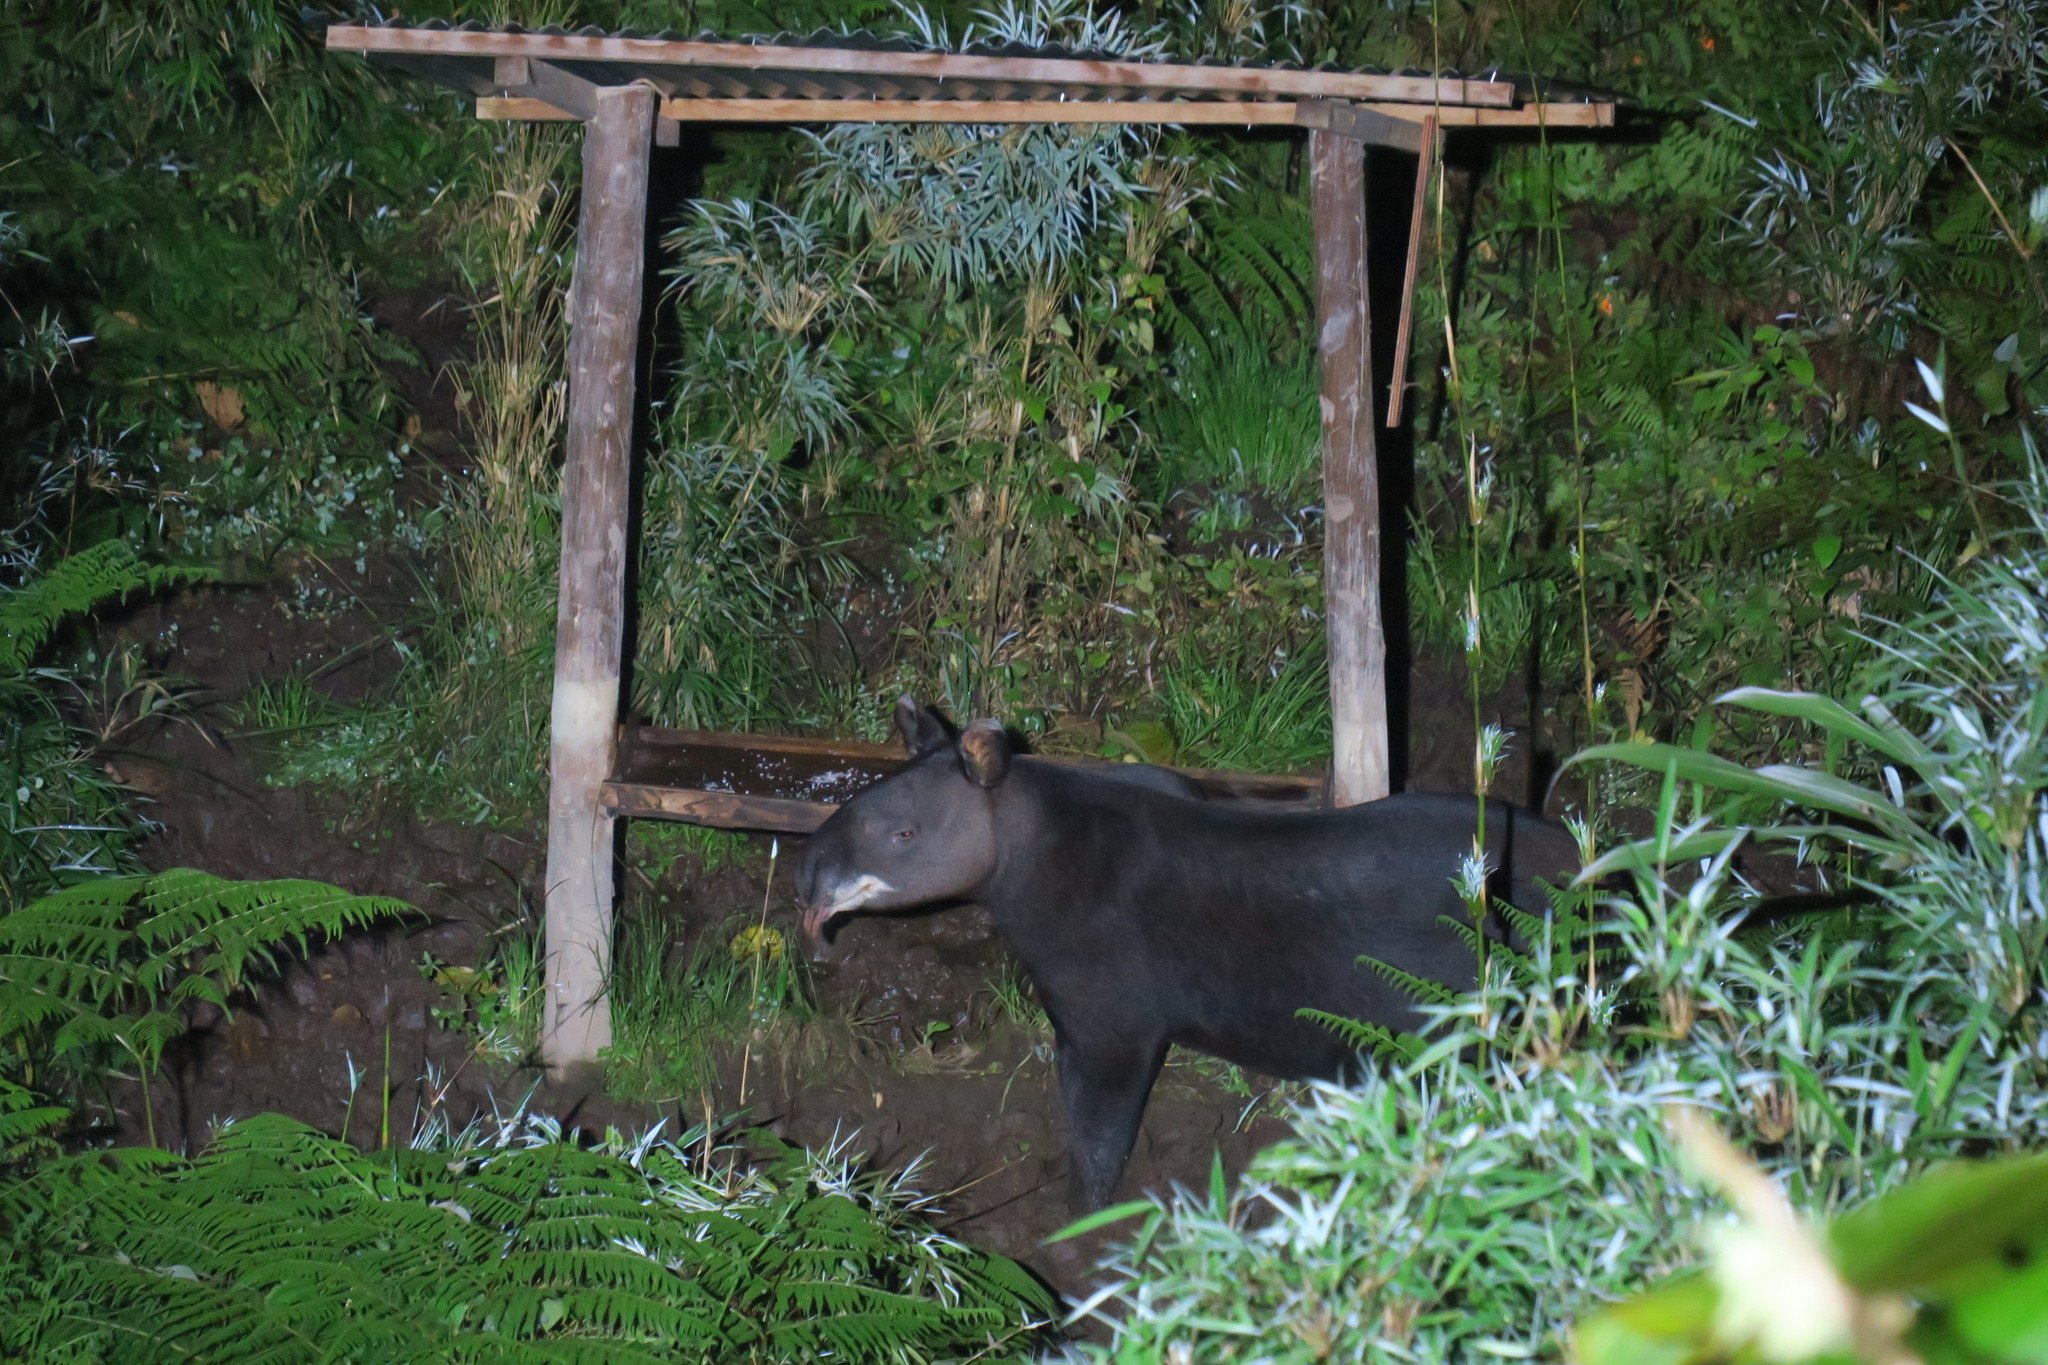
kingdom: Animalia
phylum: Chordata
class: Mammalia
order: Perissodactyla
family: Tapiridae
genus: Tapirus
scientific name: Tapirus pinchaque
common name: Mountain tapir
